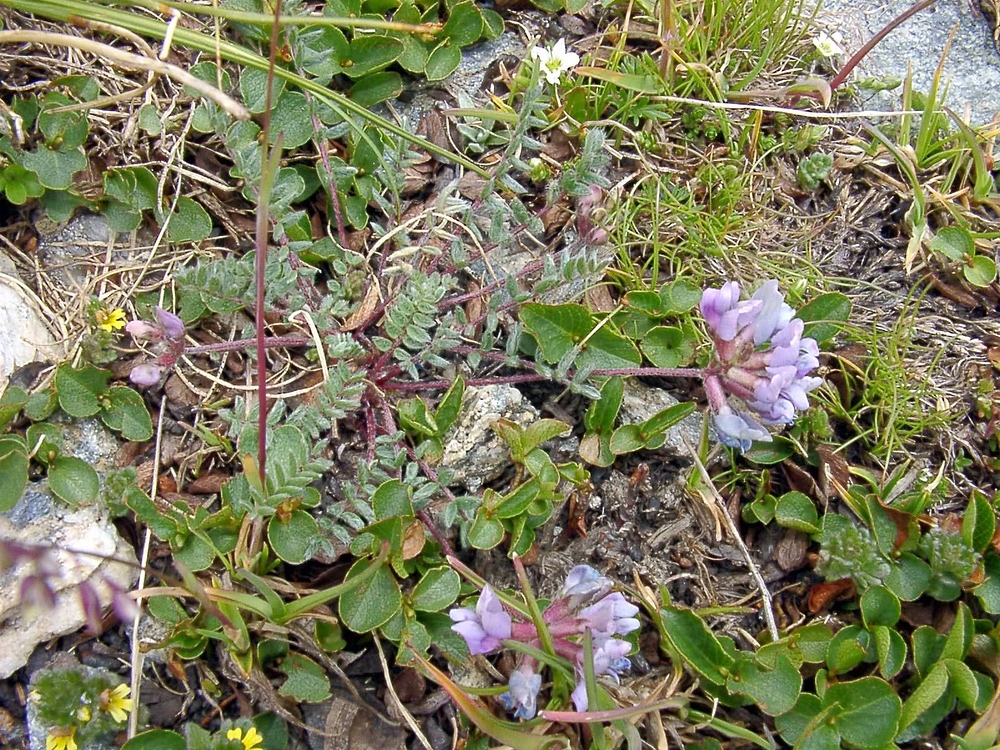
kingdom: Plantae
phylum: Tracheophyta
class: Magnoliopsida
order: Fabales
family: Fabaceae
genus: Oxytropis
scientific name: Oxytropis helvetica
